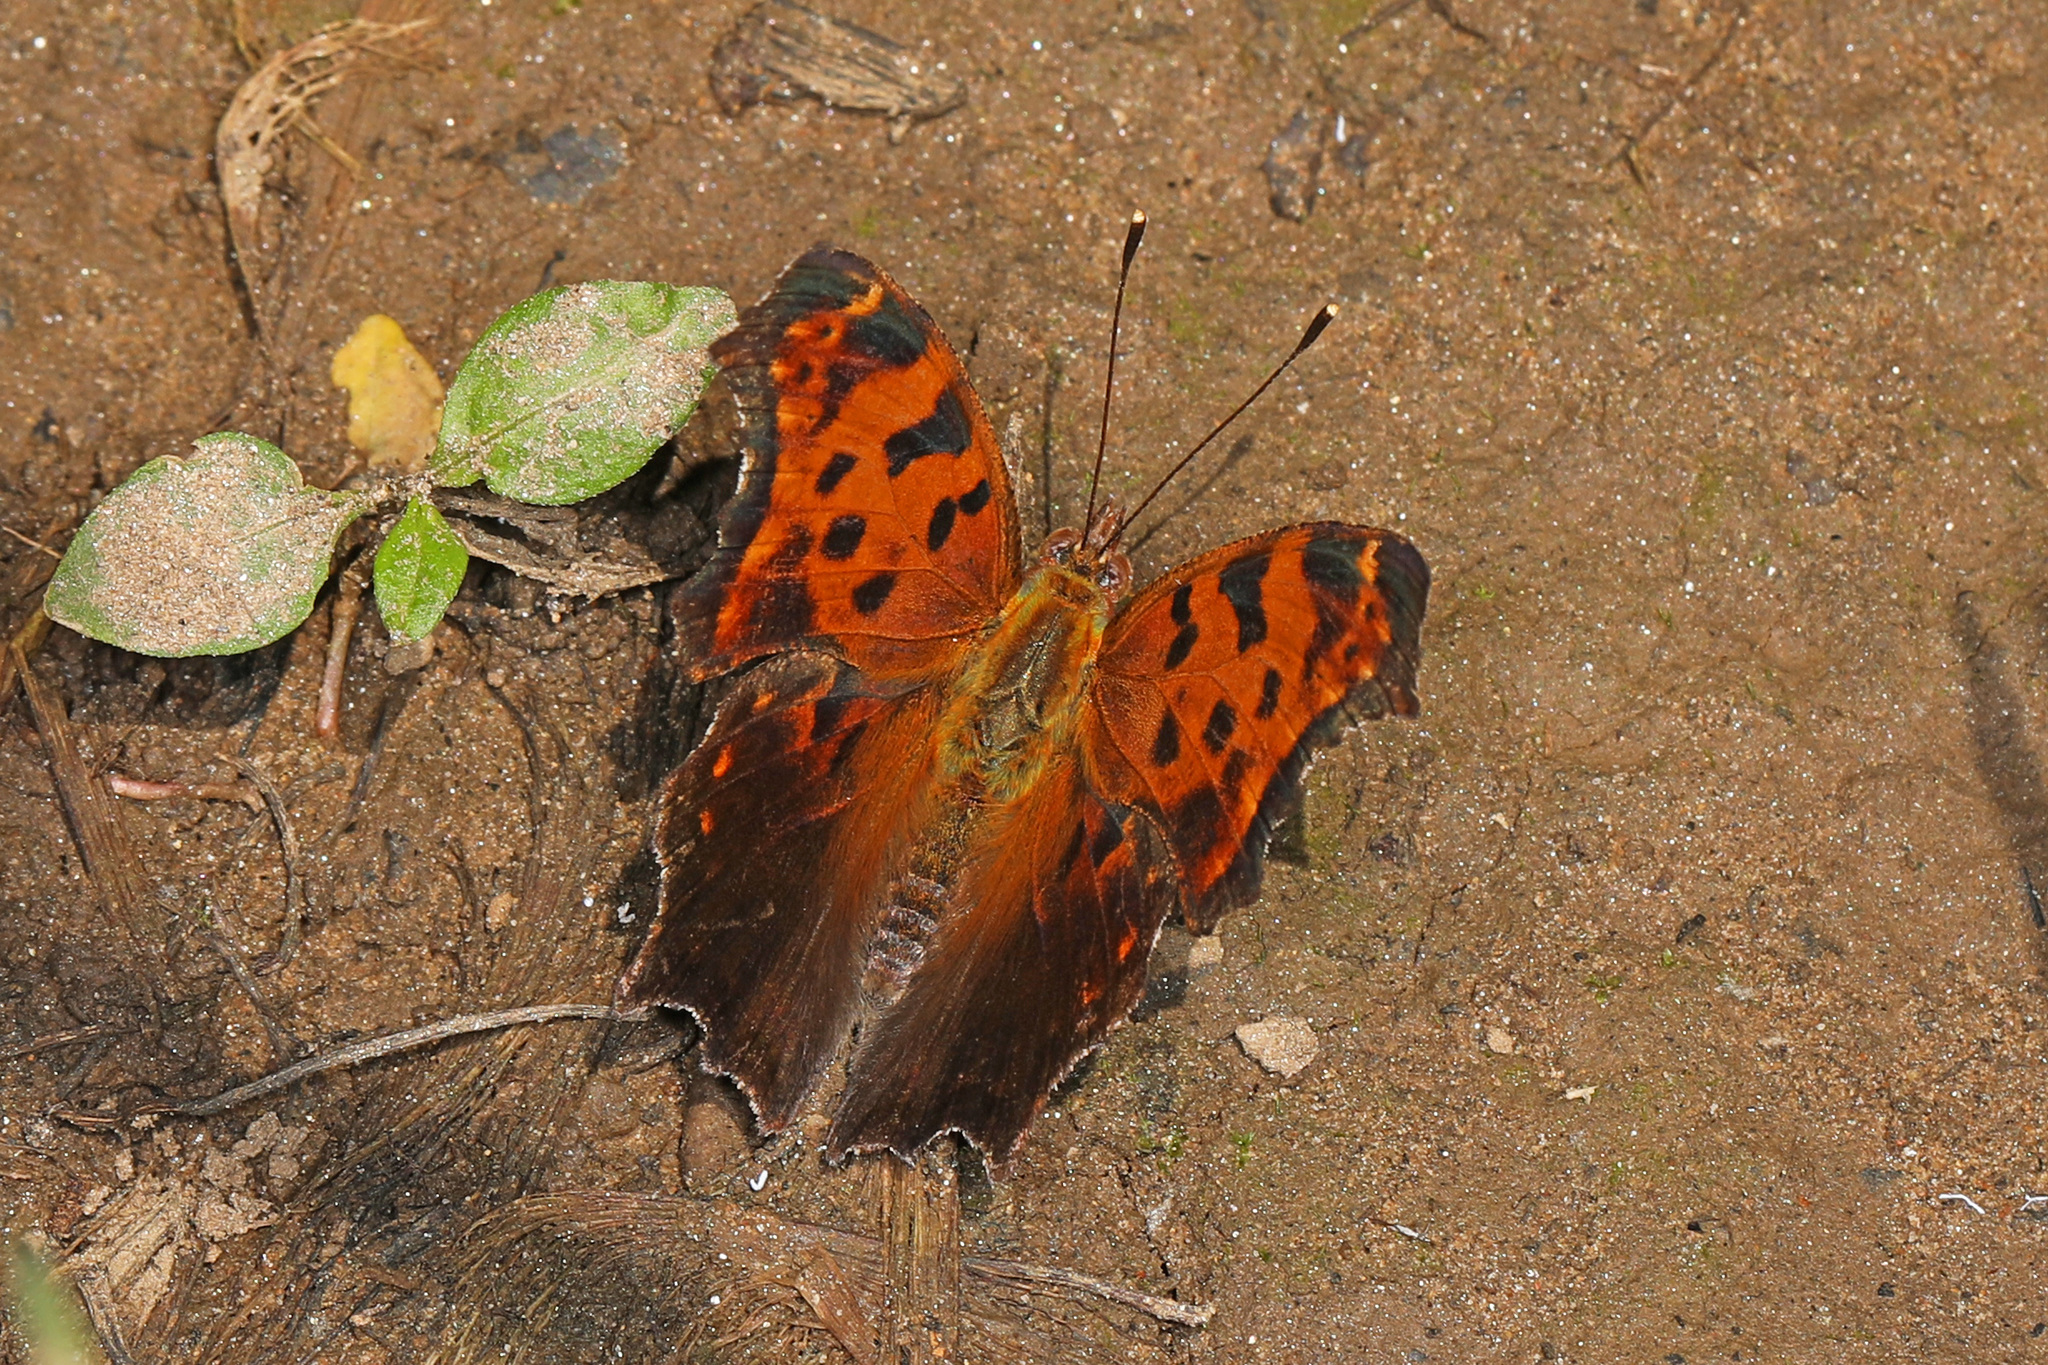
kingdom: Animalia
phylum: Arthropoda
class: Insecta
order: Lepidoptera
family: Nymphalidae
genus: Polygonia
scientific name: Polygonia comma
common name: Eastern comma
